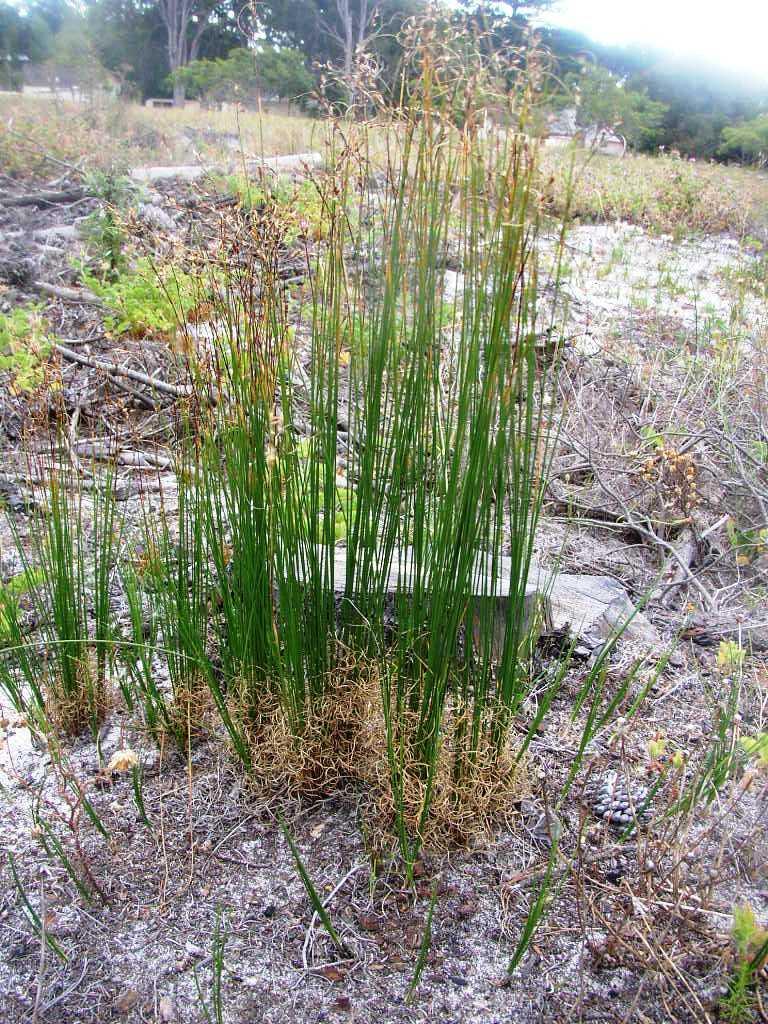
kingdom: Plantae
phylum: Tracheophyta
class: Liliopsida
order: Poales
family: Cyperaceae
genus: Ficinia
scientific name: Ficinia secunda
